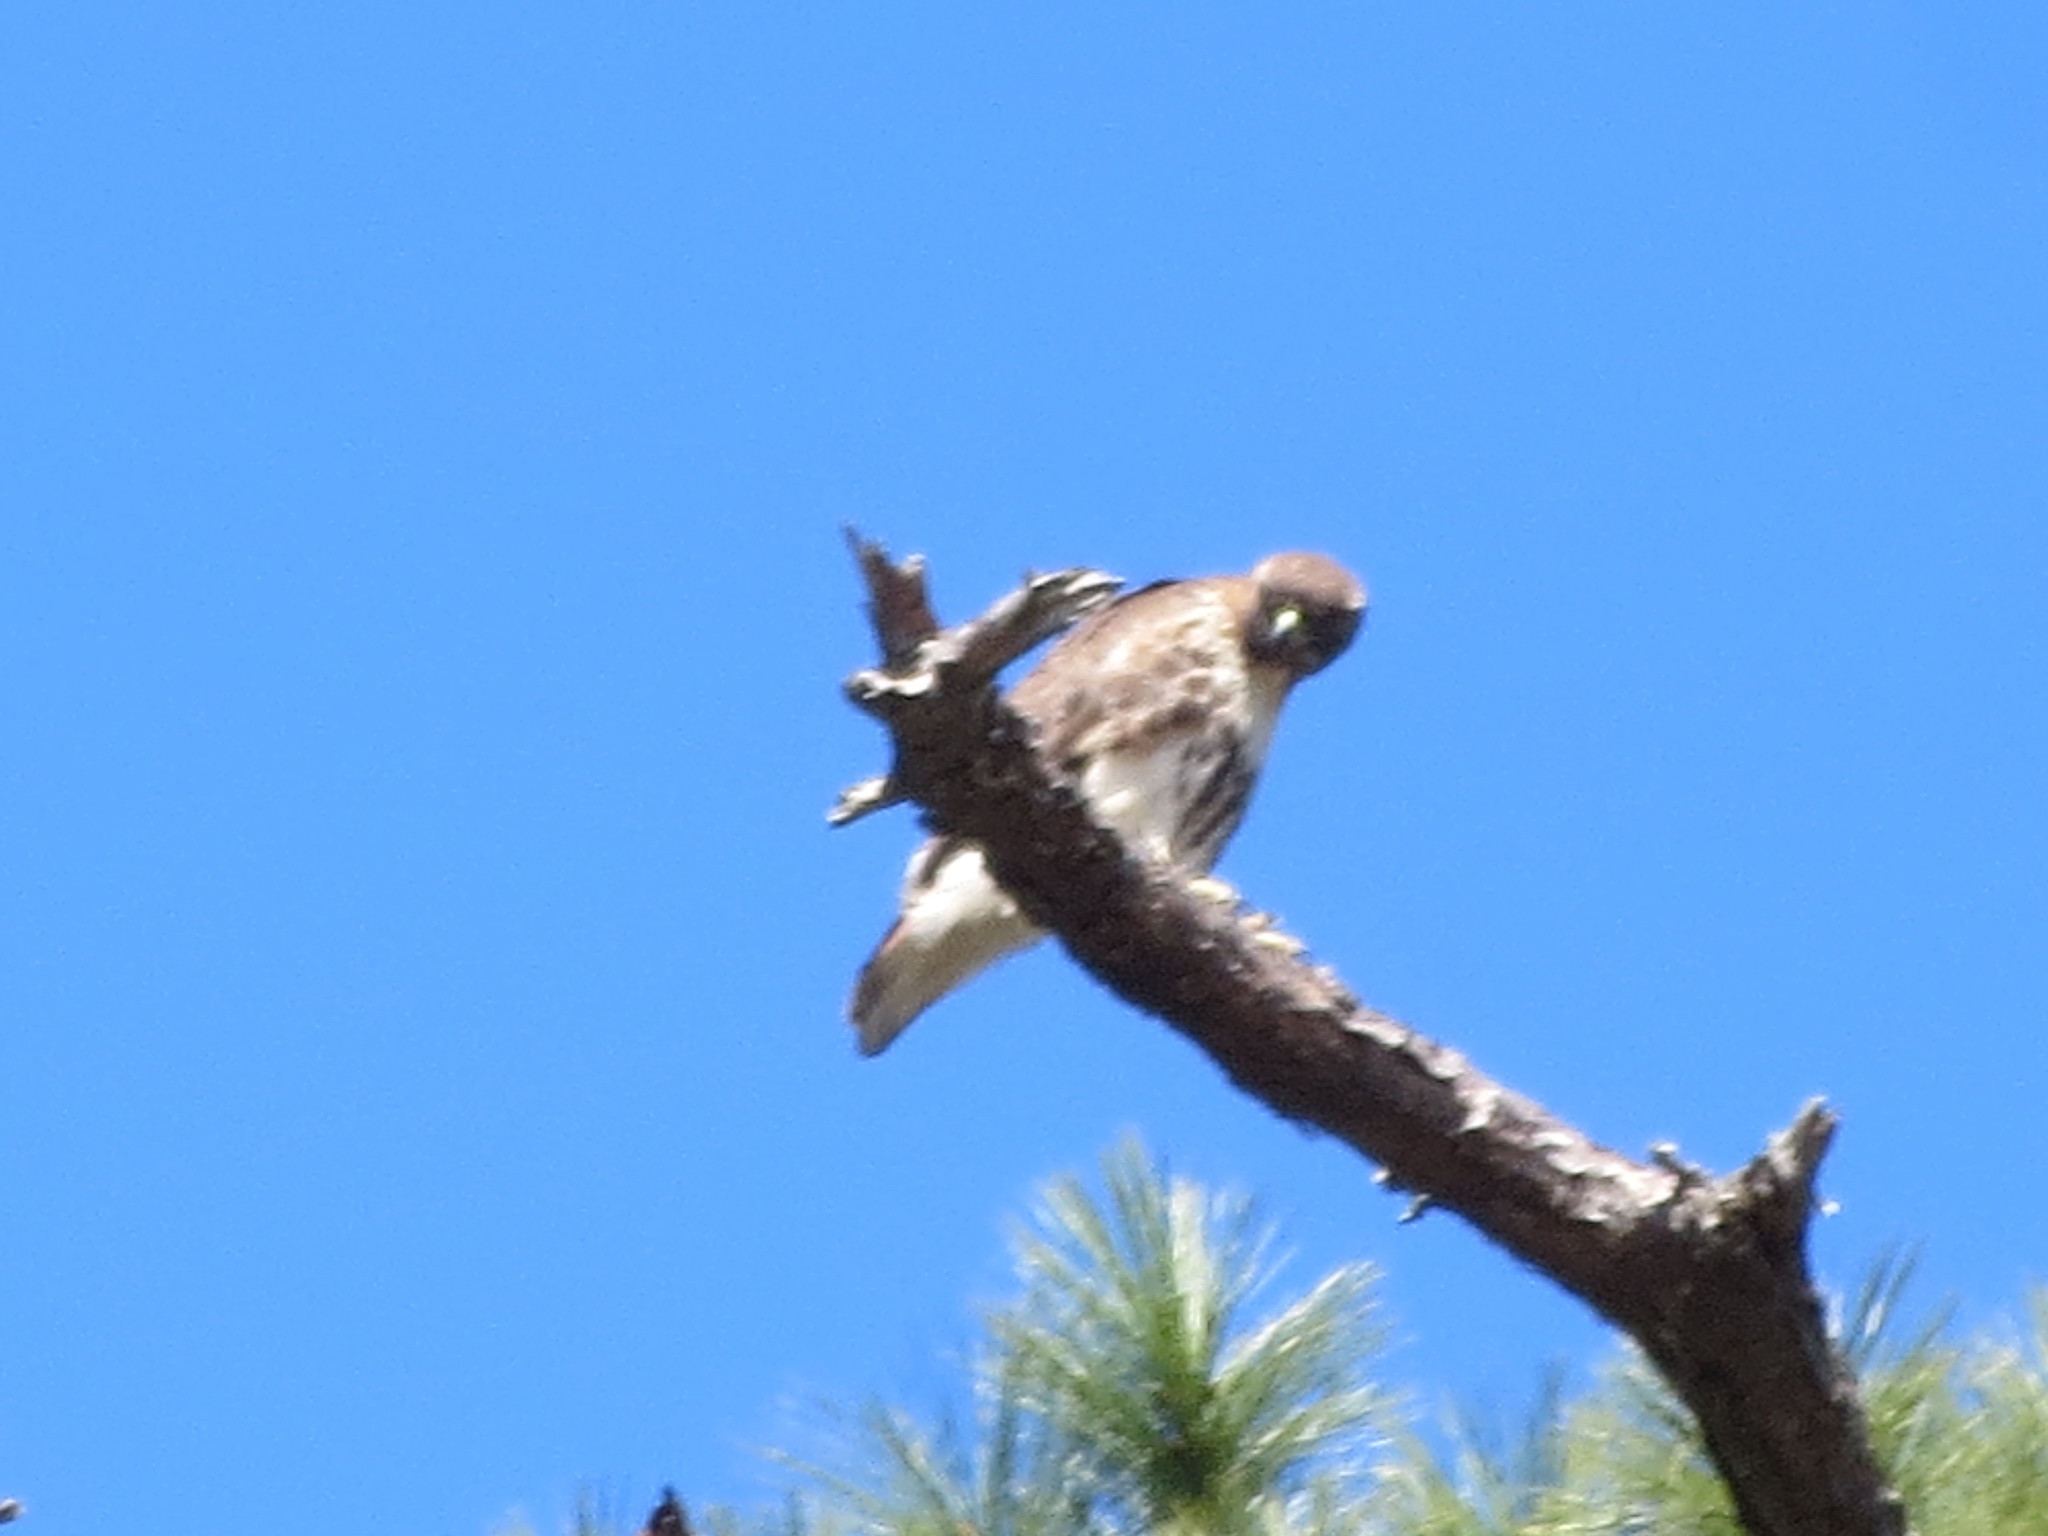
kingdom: Animalia
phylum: Chordata
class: Aves
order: Accipitriformes
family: Accipitridae
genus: Buteo
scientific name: Buteo jamaicensis
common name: Red-tailed hawk
